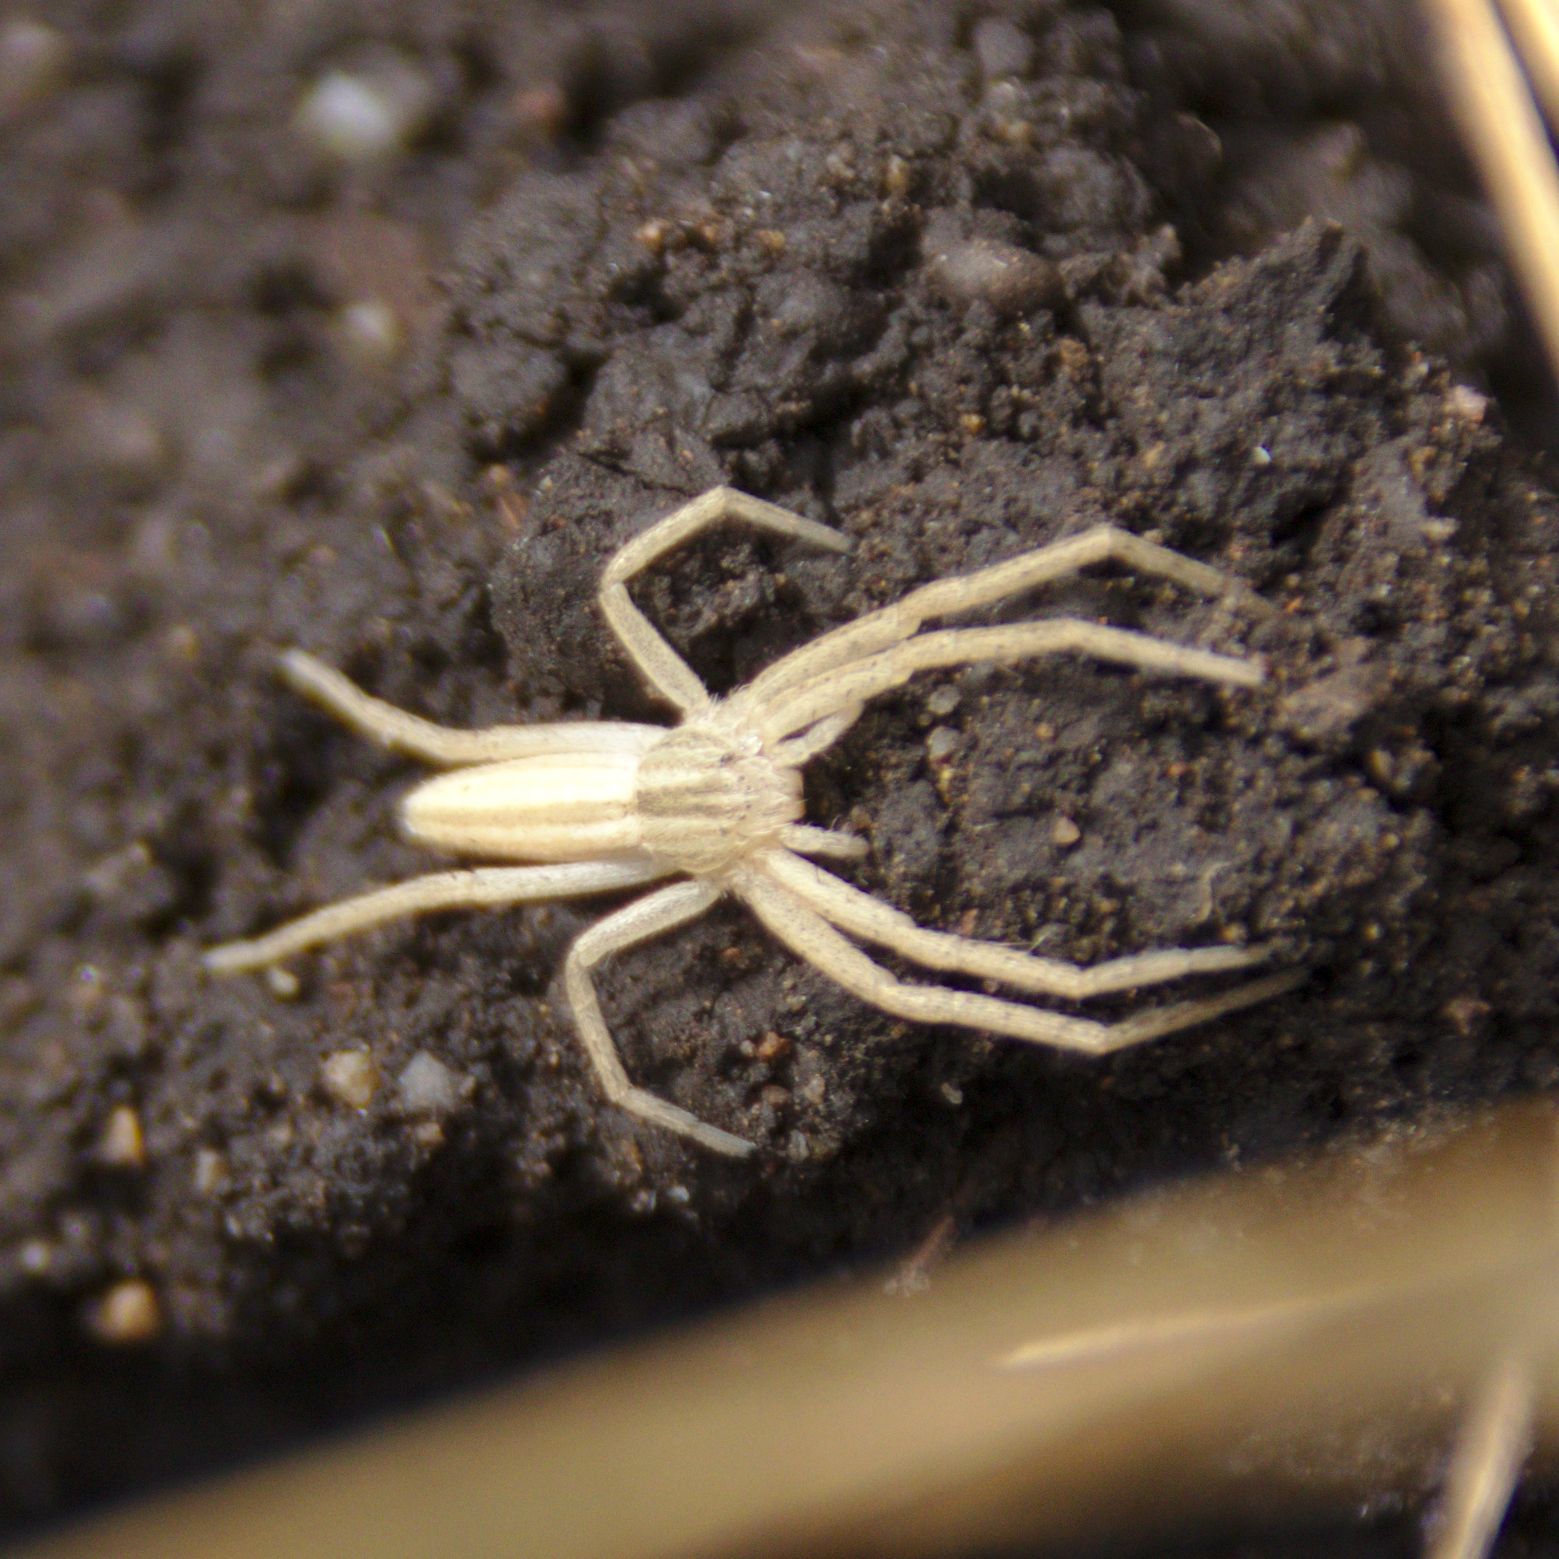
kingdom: Animalia
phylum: Arthropoda
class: Arachnida
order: Araneae
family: Philodromidae
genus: Tibellus
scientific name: Tibellus
